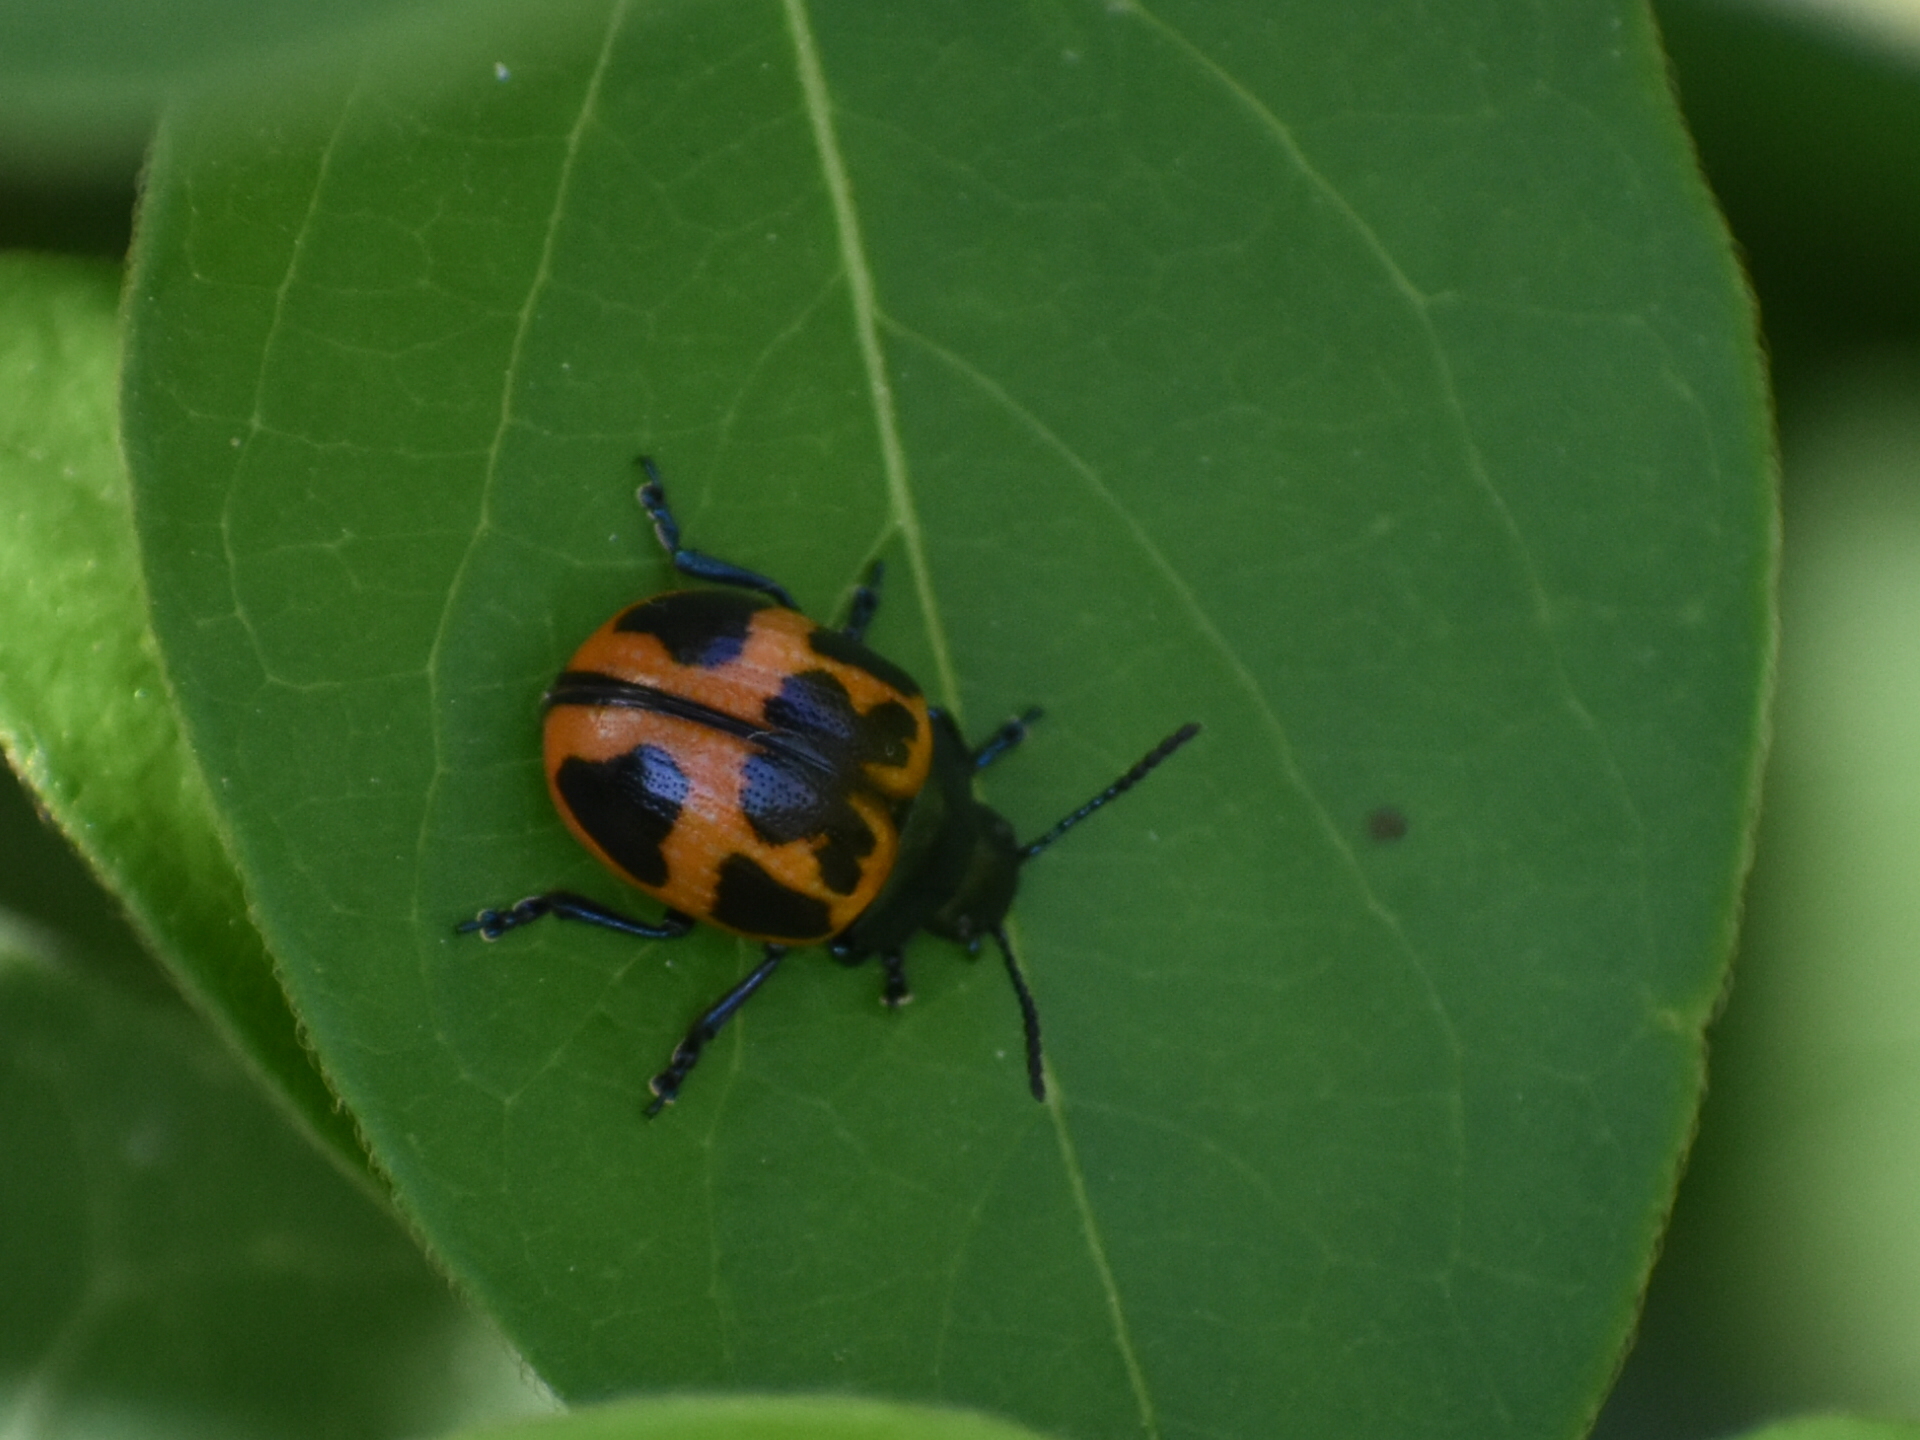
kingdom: Animalia
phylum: Arthropoda
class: Insecta
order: Coleoptera
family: Chrysomelidae
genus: Labidomera
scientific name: Labidomera clivicollis
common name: Swamp milkweed leaf beetle
